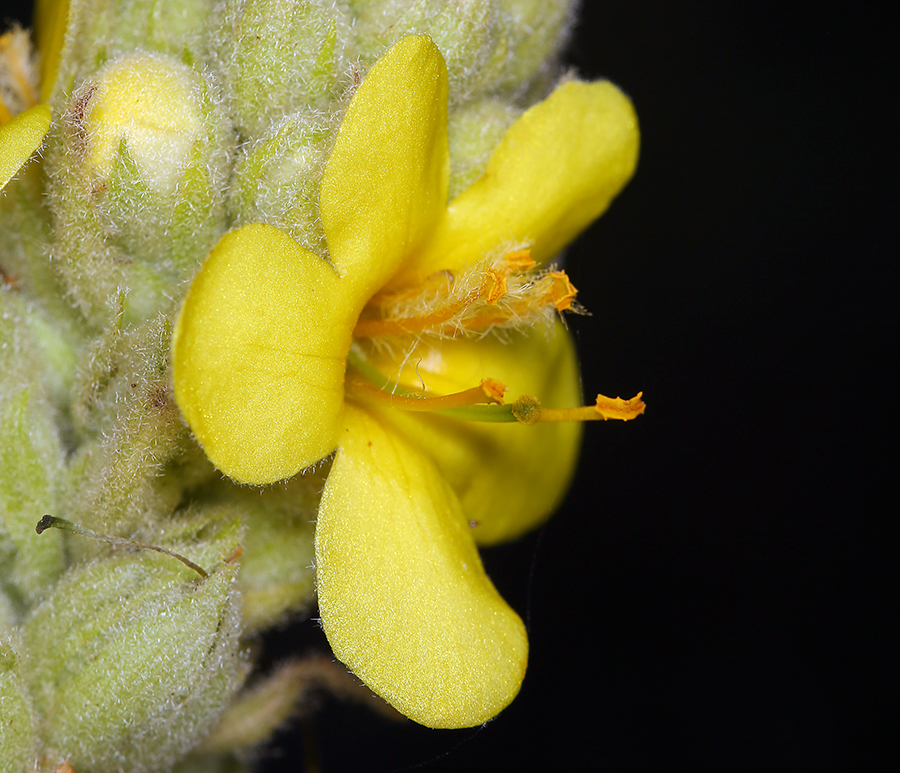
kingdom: Plantae
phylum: Tracheophyta
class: Magnoliopsida
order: Lamiales
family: Scrophulariaceae
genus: Verbascum
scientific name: Verbascum thapsus
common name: Common mullein
